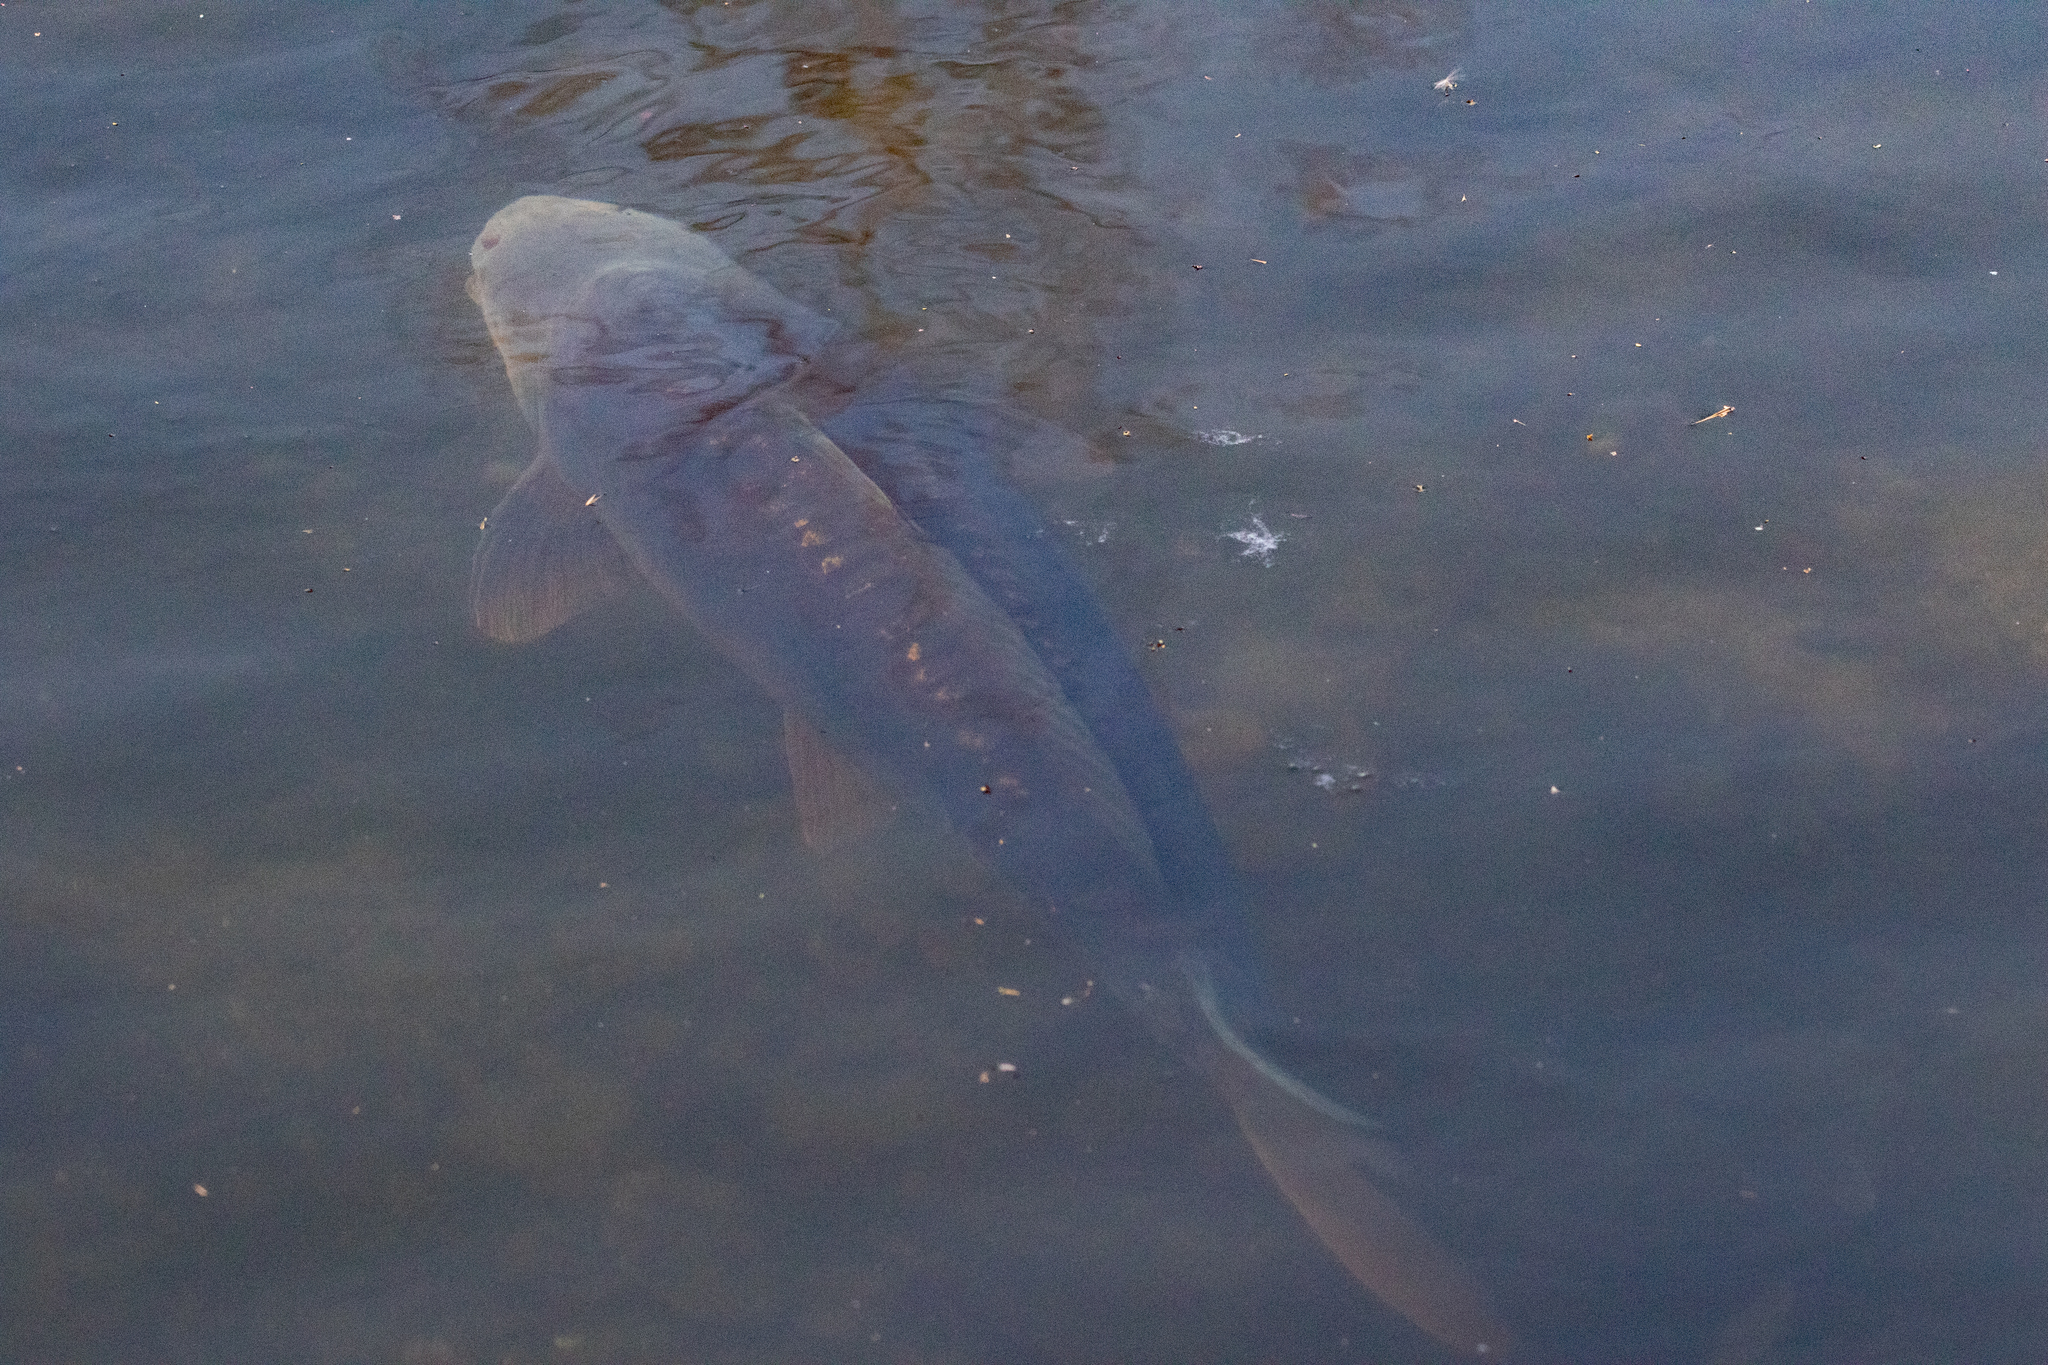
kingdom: Animalia
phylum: Chordata
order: Cypriniformes
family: Cyprinidae
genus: Cyprinus
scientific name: Cyprinus carpio
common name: Common carp
